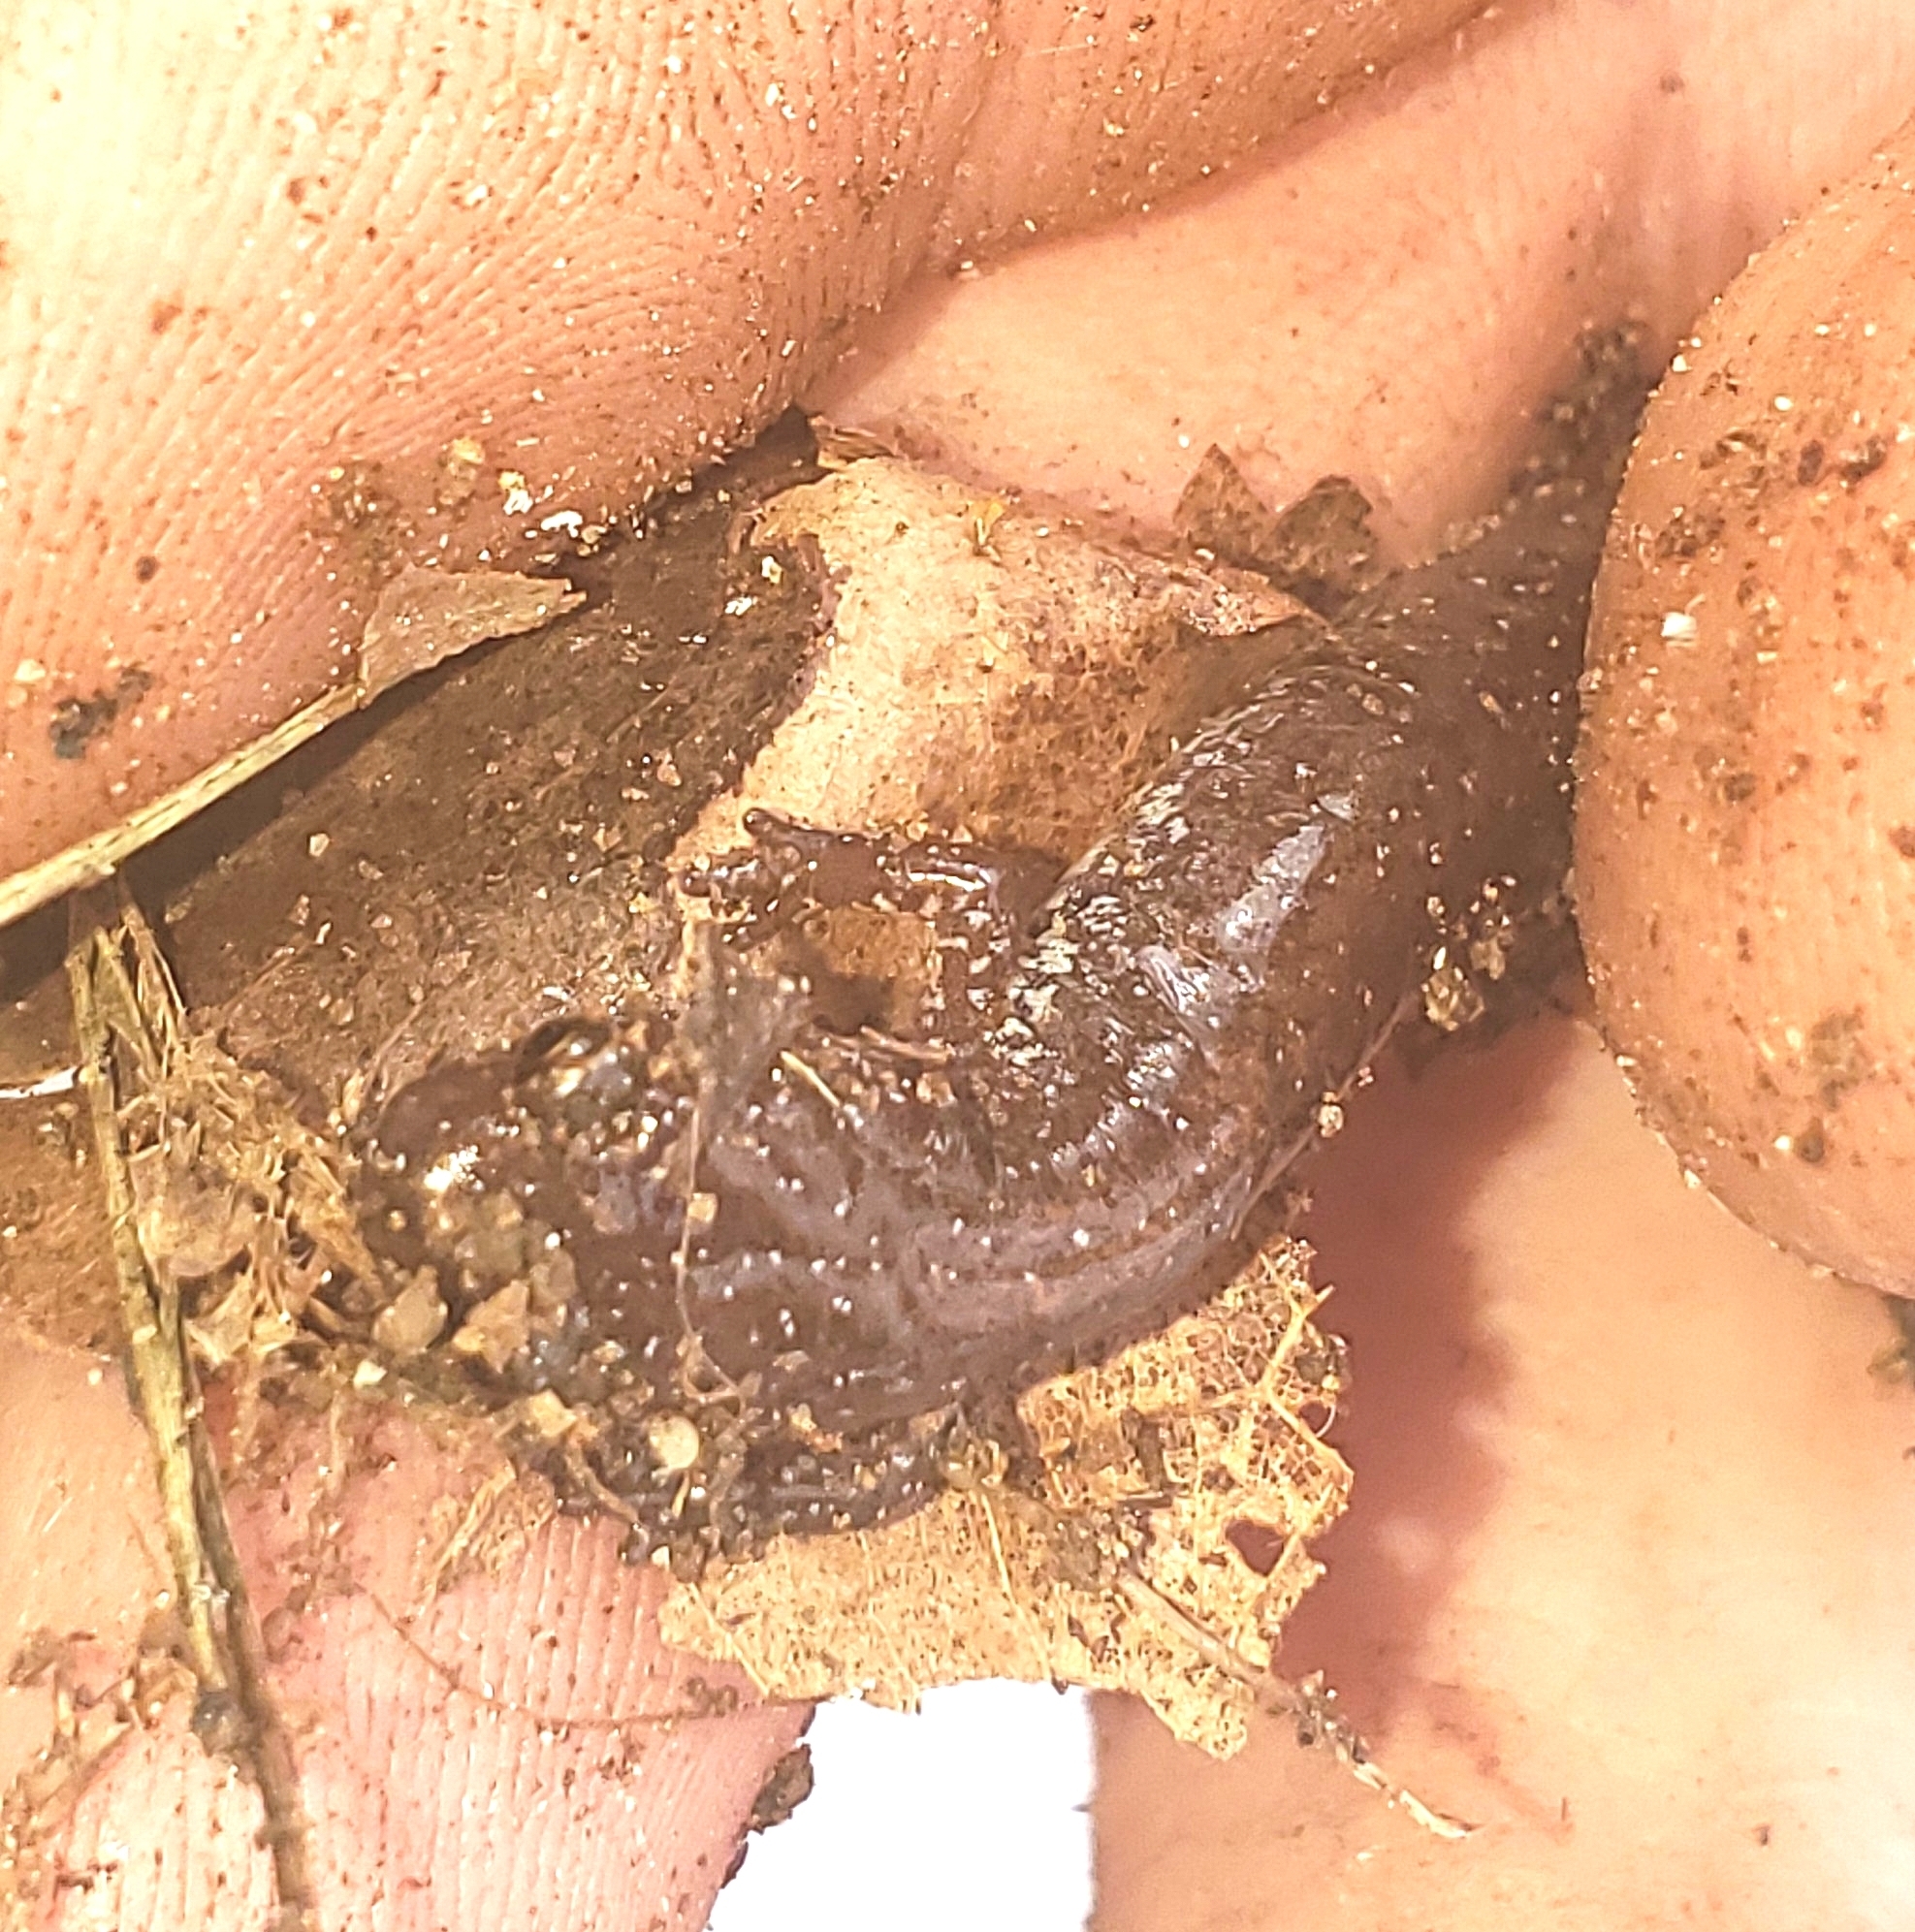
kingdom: Animalia
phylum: Chordata
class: Amphibia
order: Caudata
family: Plethodontidae
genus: Plethodon
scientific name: Plethodon angusticlavius
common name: Ozark zigzag salamander
